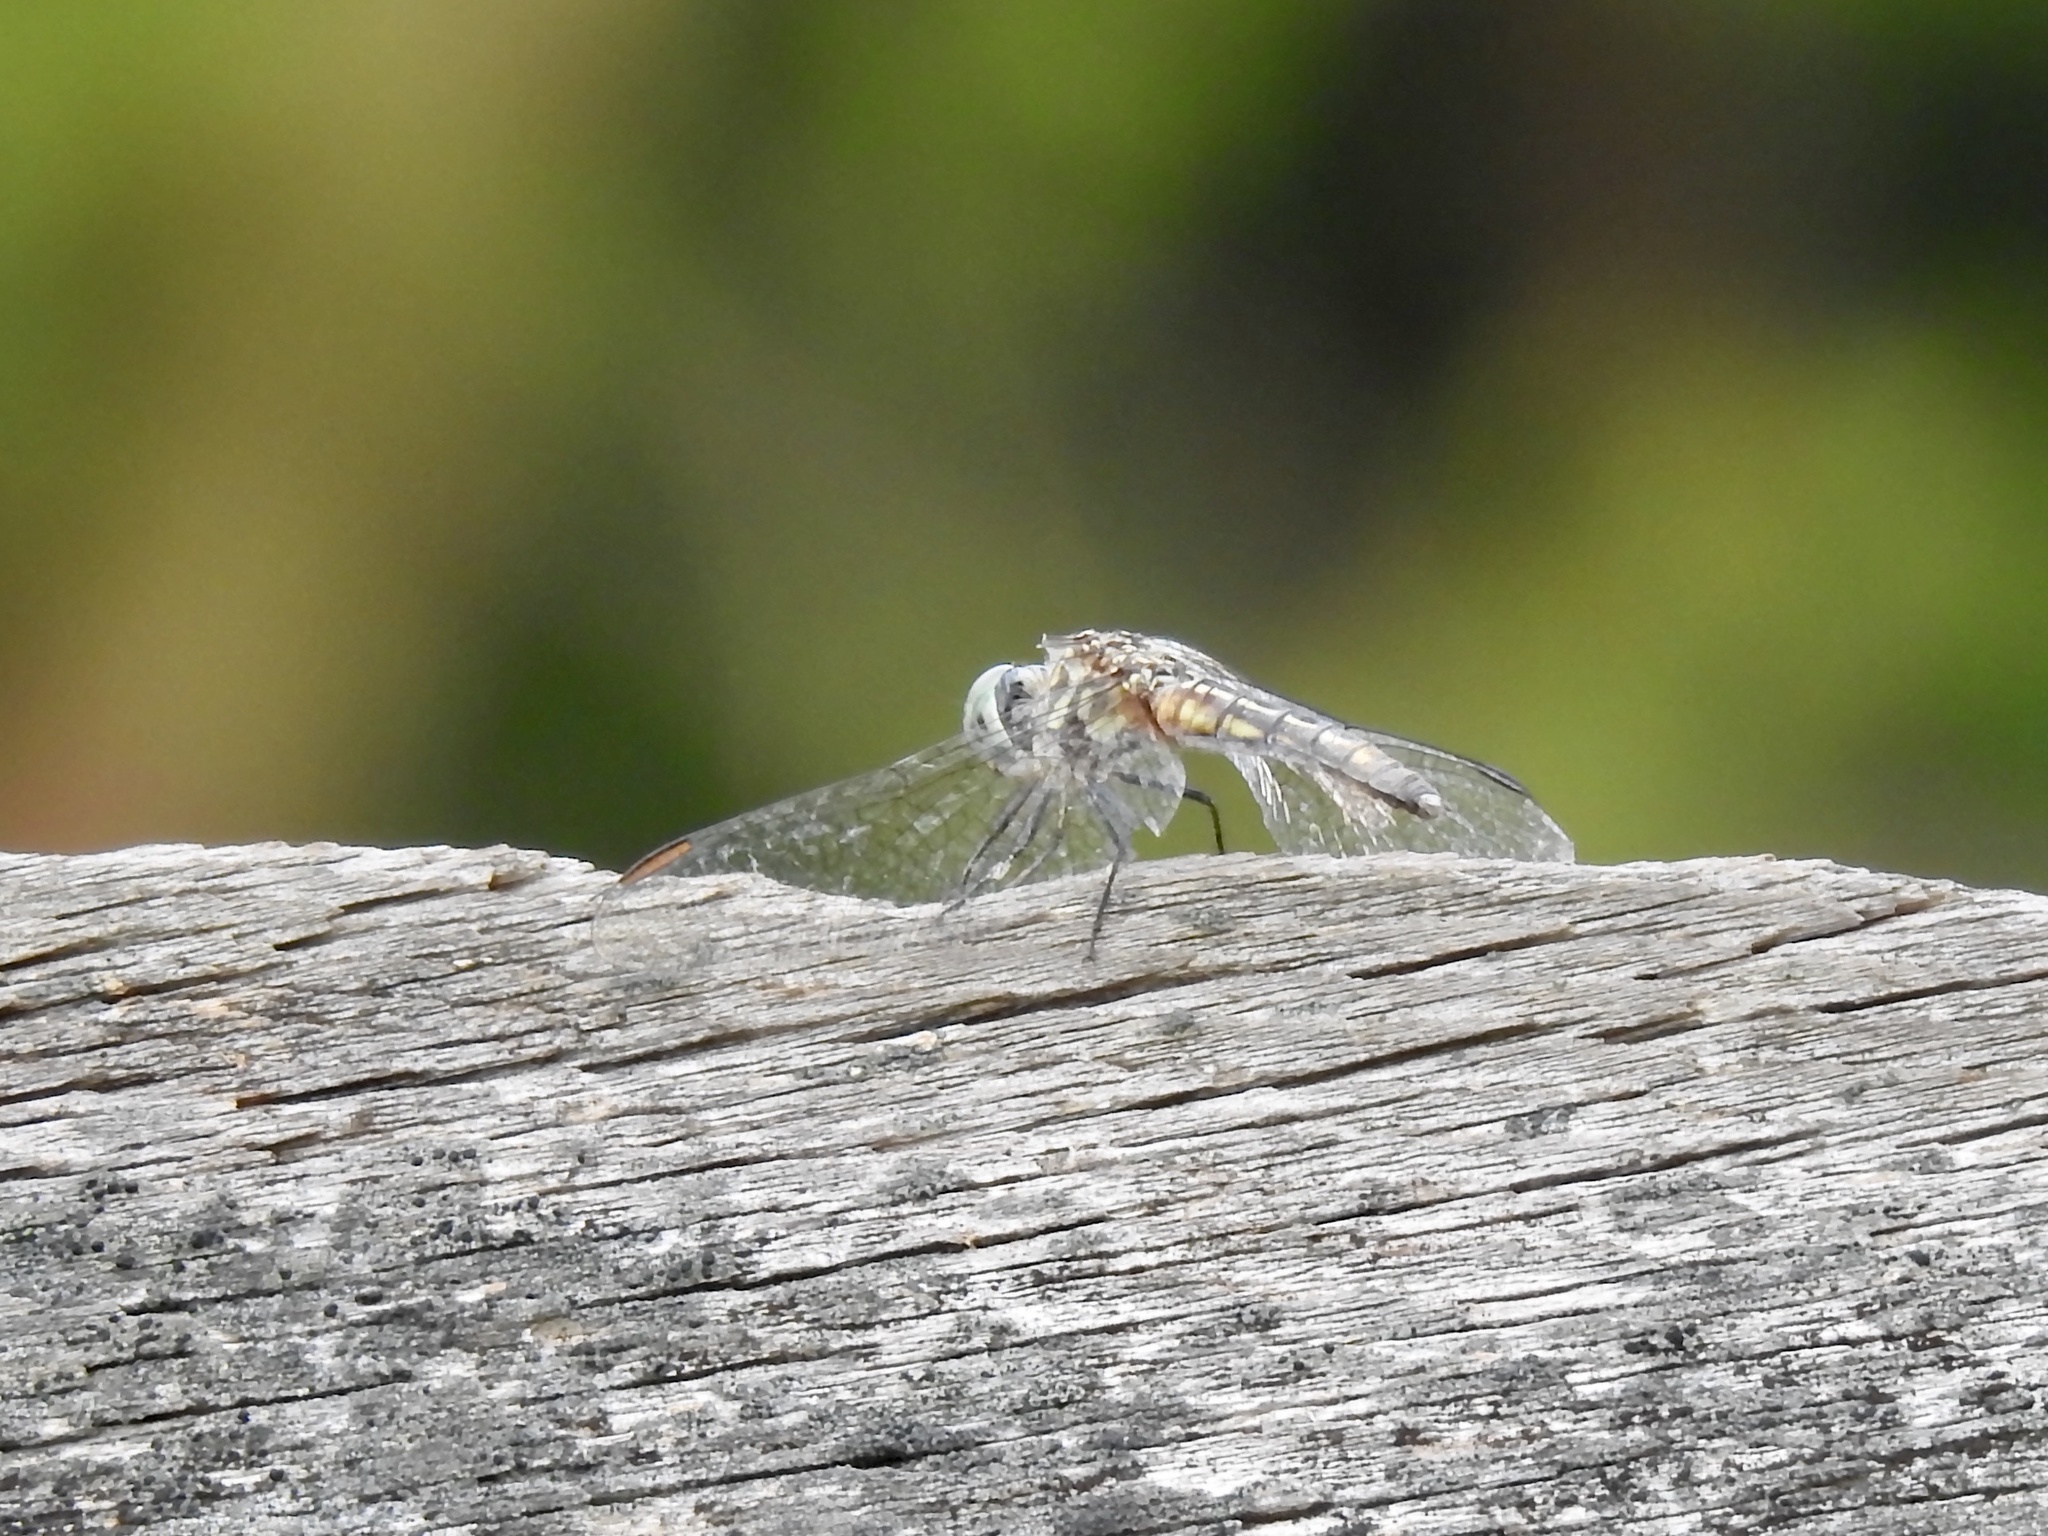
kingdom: Animalia
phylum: Arthropoda
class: Insecta
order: Odonata
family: Libellulidae
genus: Pachydiplax
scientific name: Pachydiplax longipennis
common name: Blue dasher
